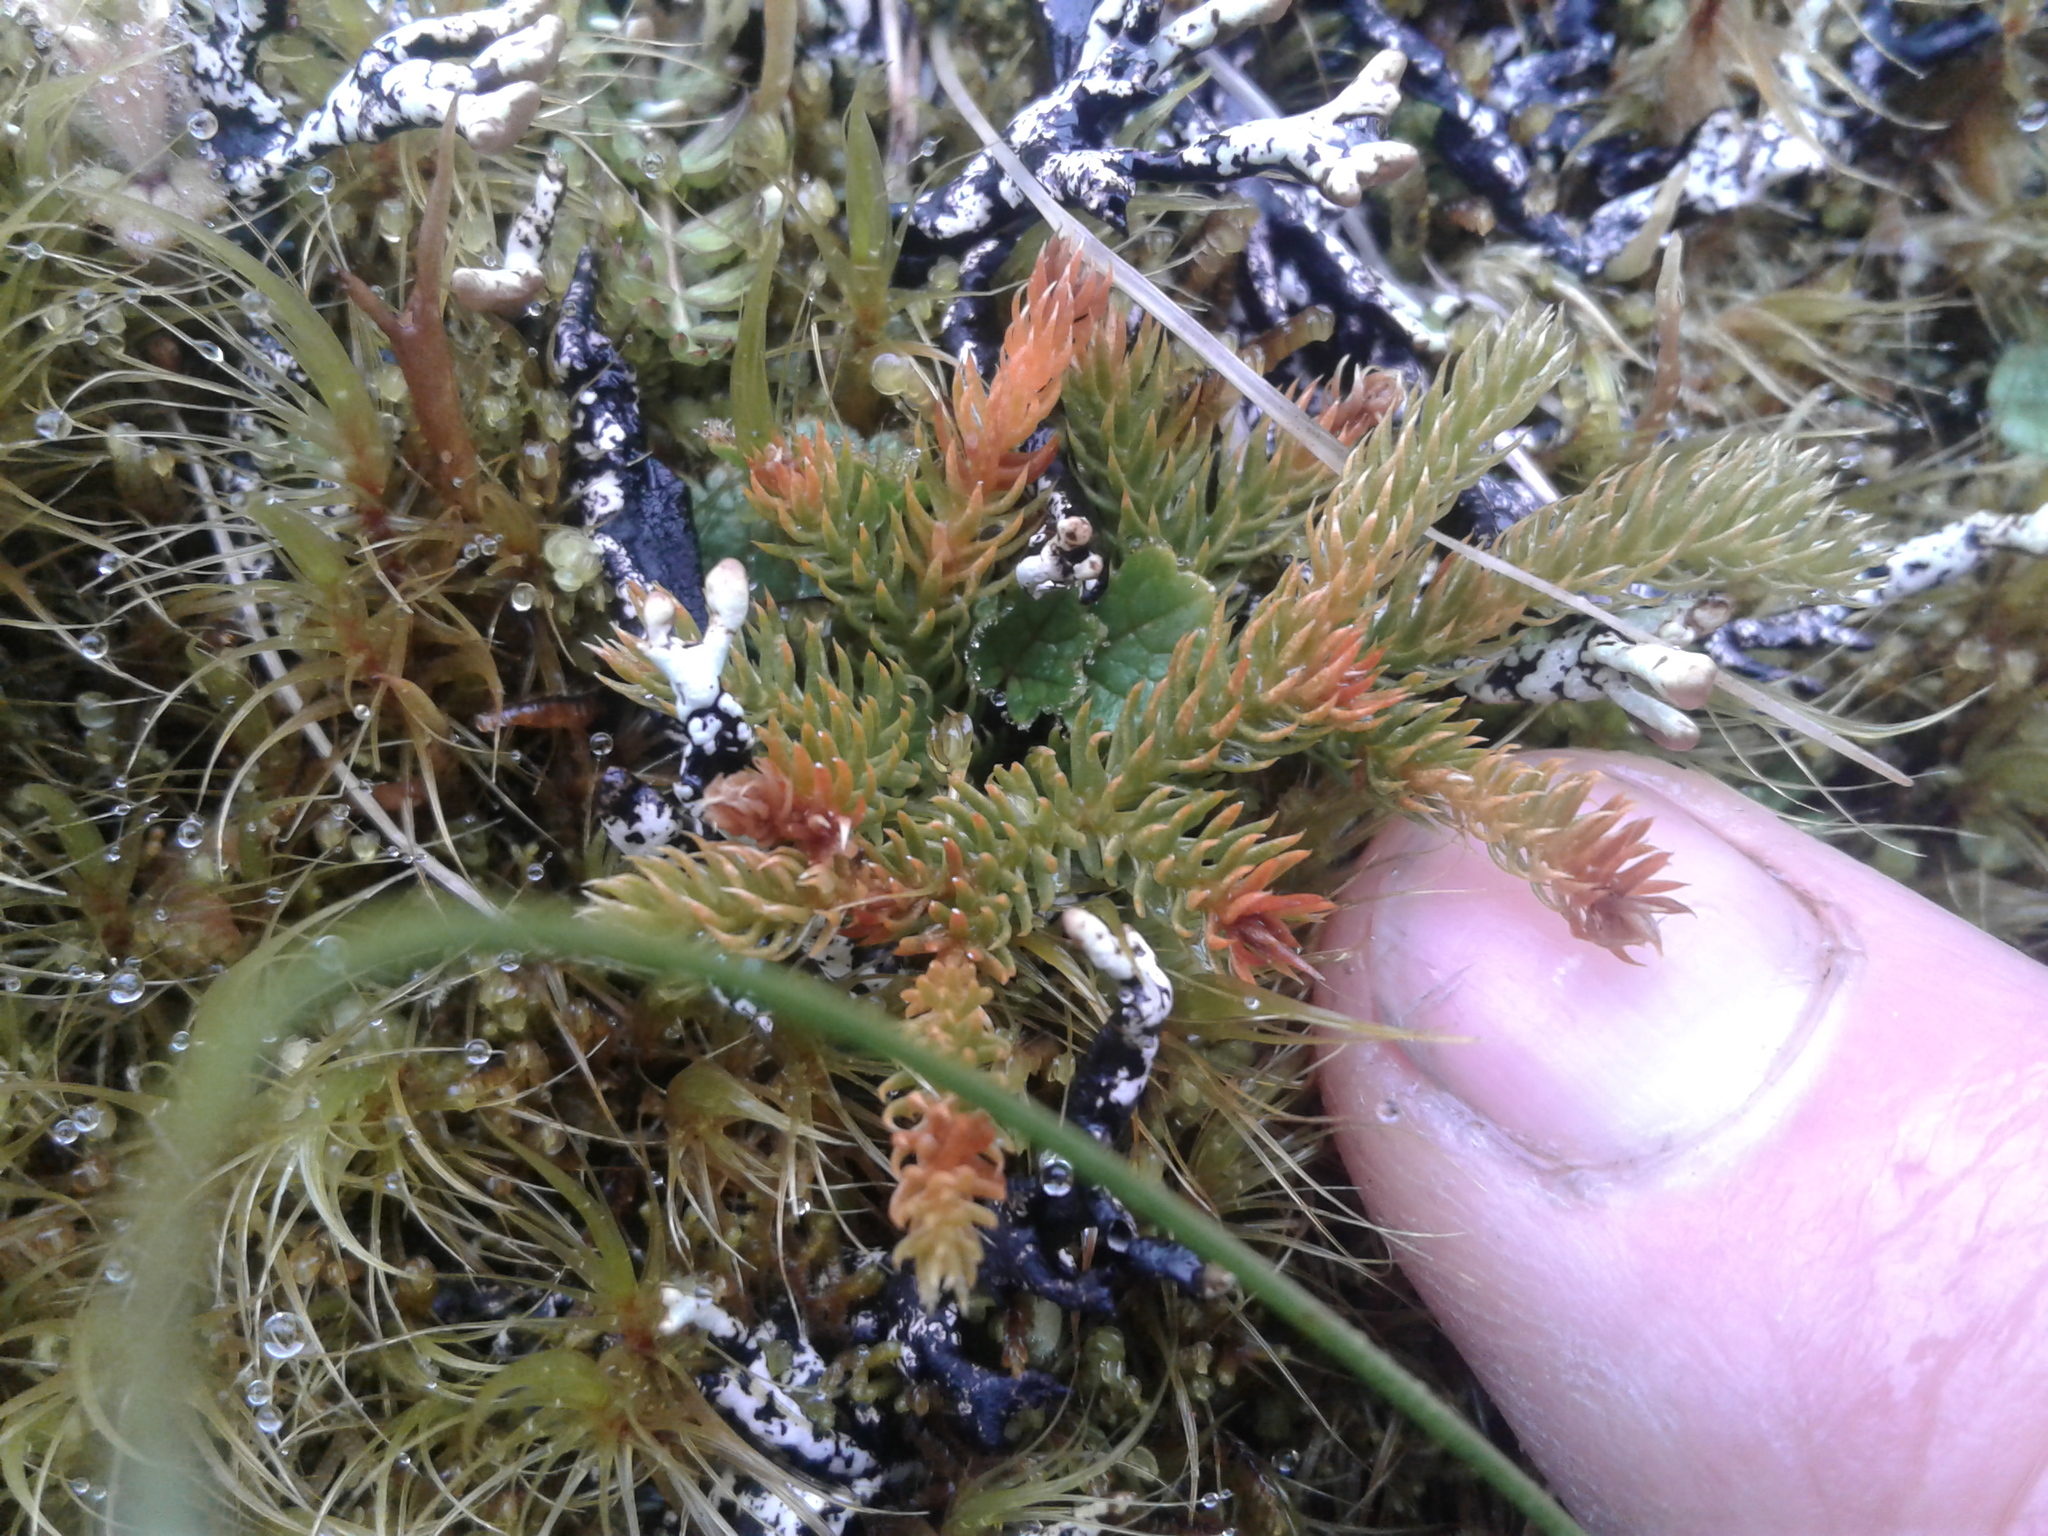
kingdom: Plantae
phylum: Tracheophyta
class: Lycopodiopsida
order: Lycopodiales
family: Lycopodiaceae
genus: Austrolycopodium
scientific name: Austrolycopodium fastigiatum
